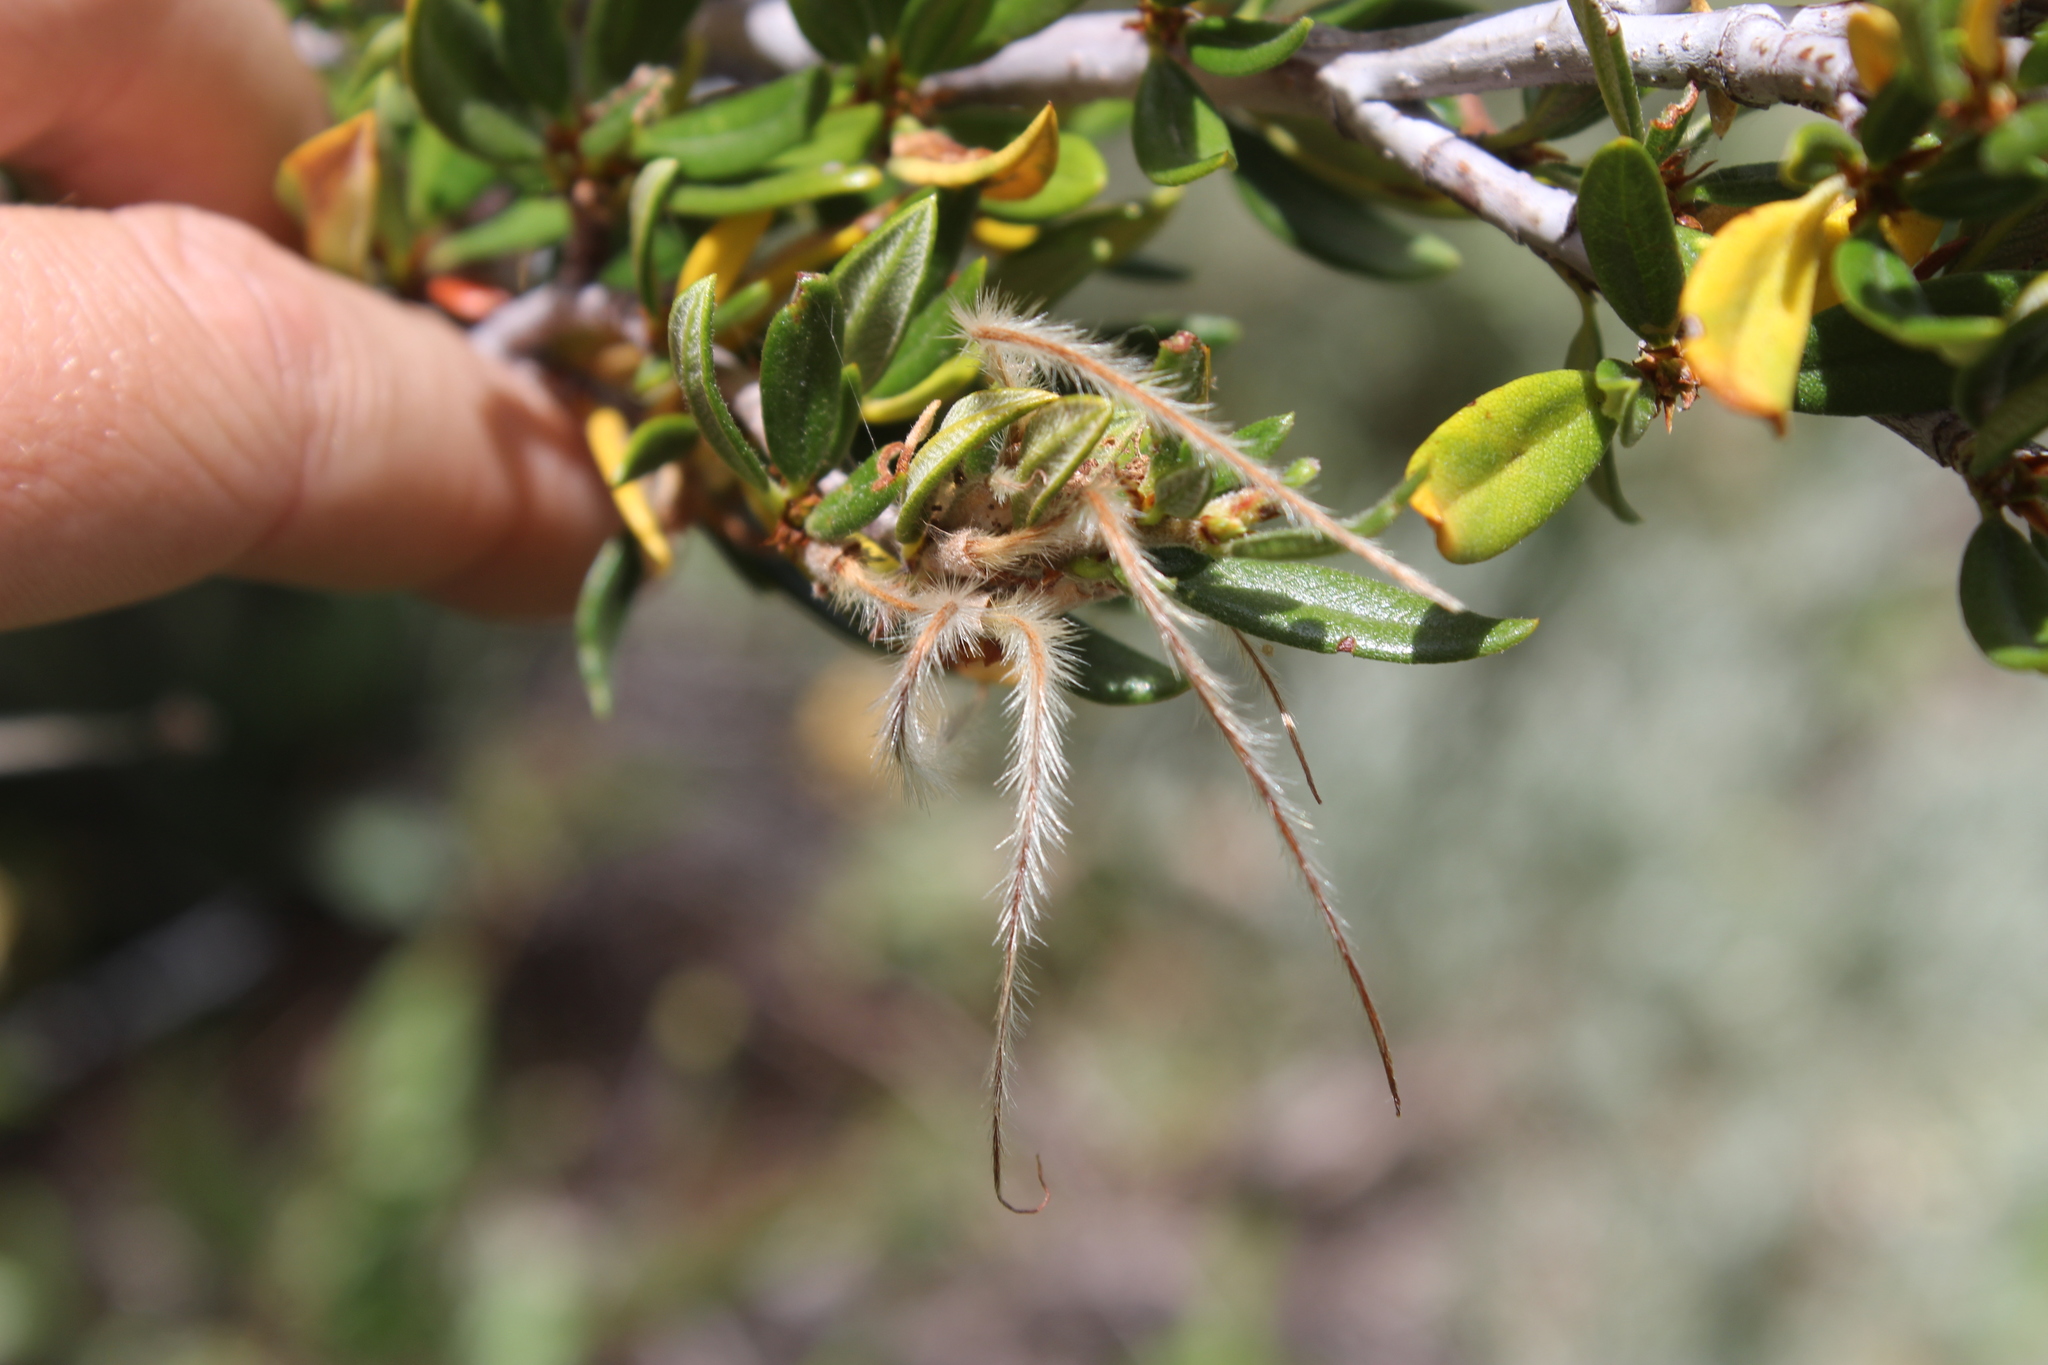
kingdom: Plantae
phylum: Tracheophyta
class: Magnoliopsida
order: Rosales
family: Rosaceae
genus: Cercocarpus
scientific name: Cercocarpus ledifolius
